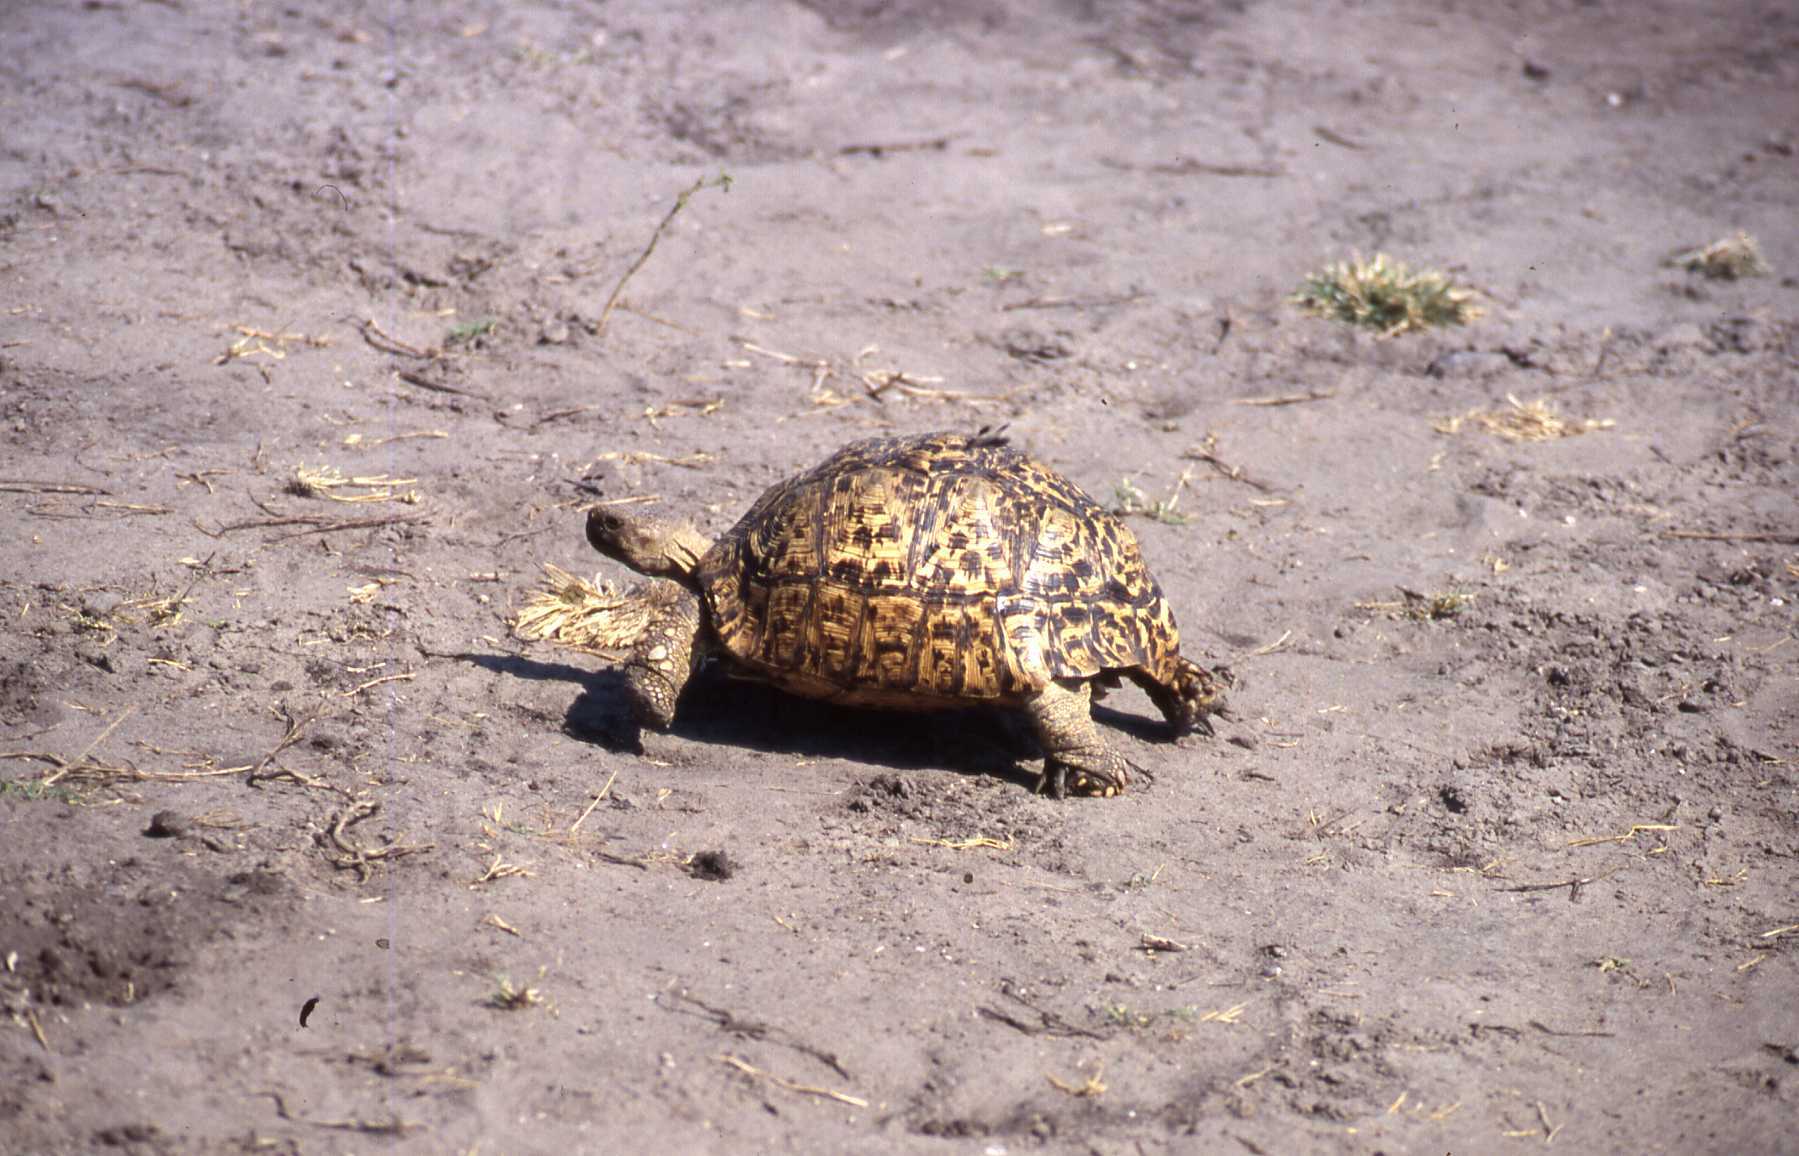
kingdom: Animalia
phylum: Chordata
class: Testudines
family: Testudinidae
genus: Stigmochelys
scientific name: Stigmochelys pardalis
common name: Leopard tortoise
